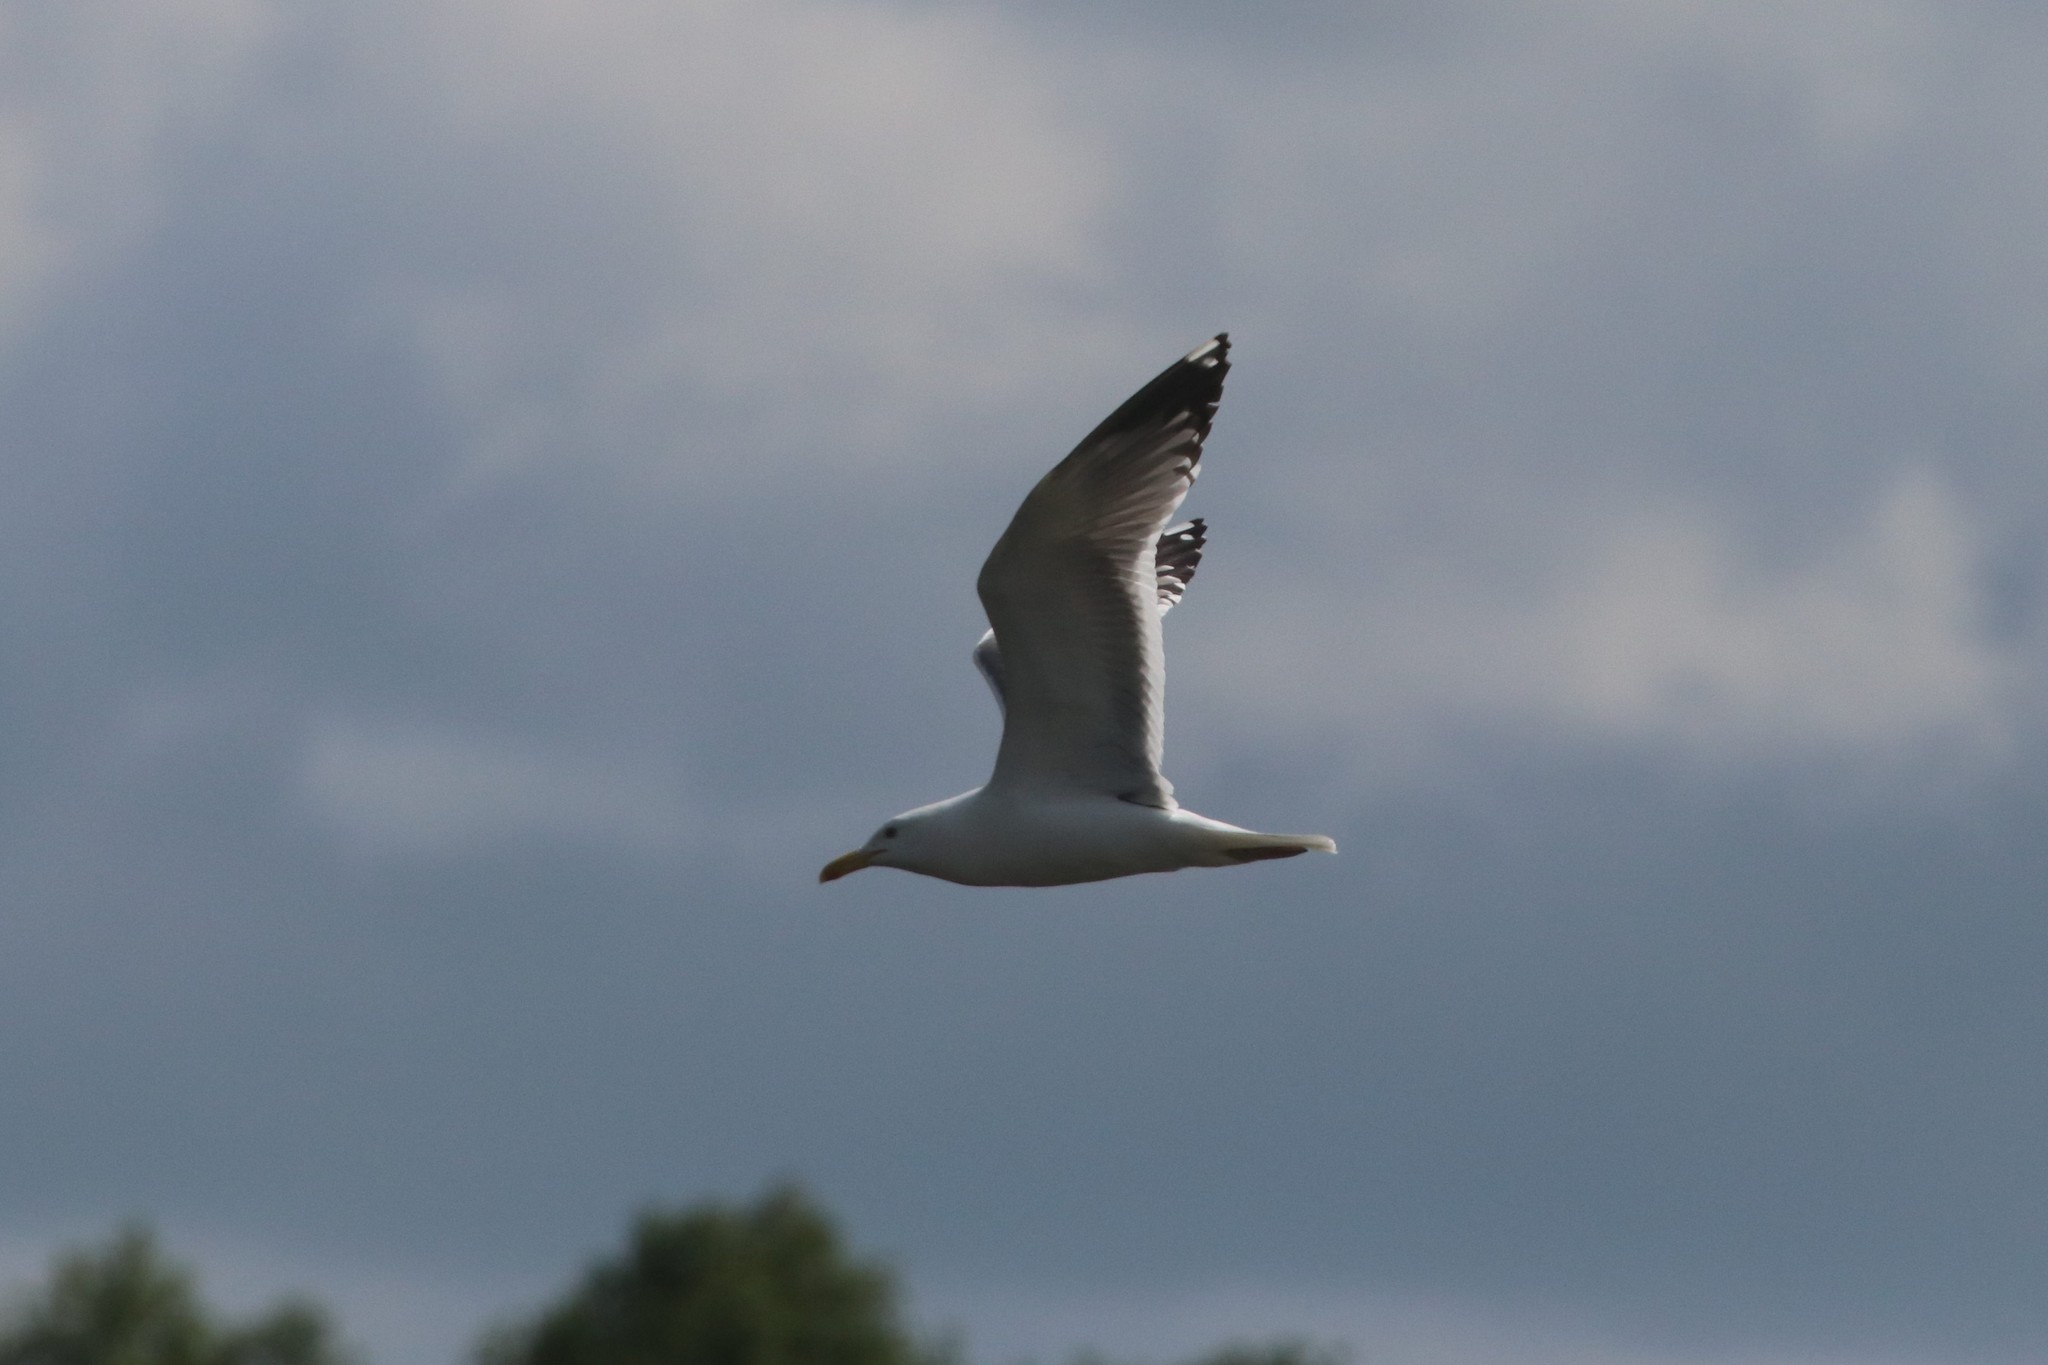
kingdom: Animalia
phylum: Chordata
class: Aves
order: Charadriiformes
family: Laridae
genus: Larus
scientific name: Larus cachinnans
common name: Caspian gull
